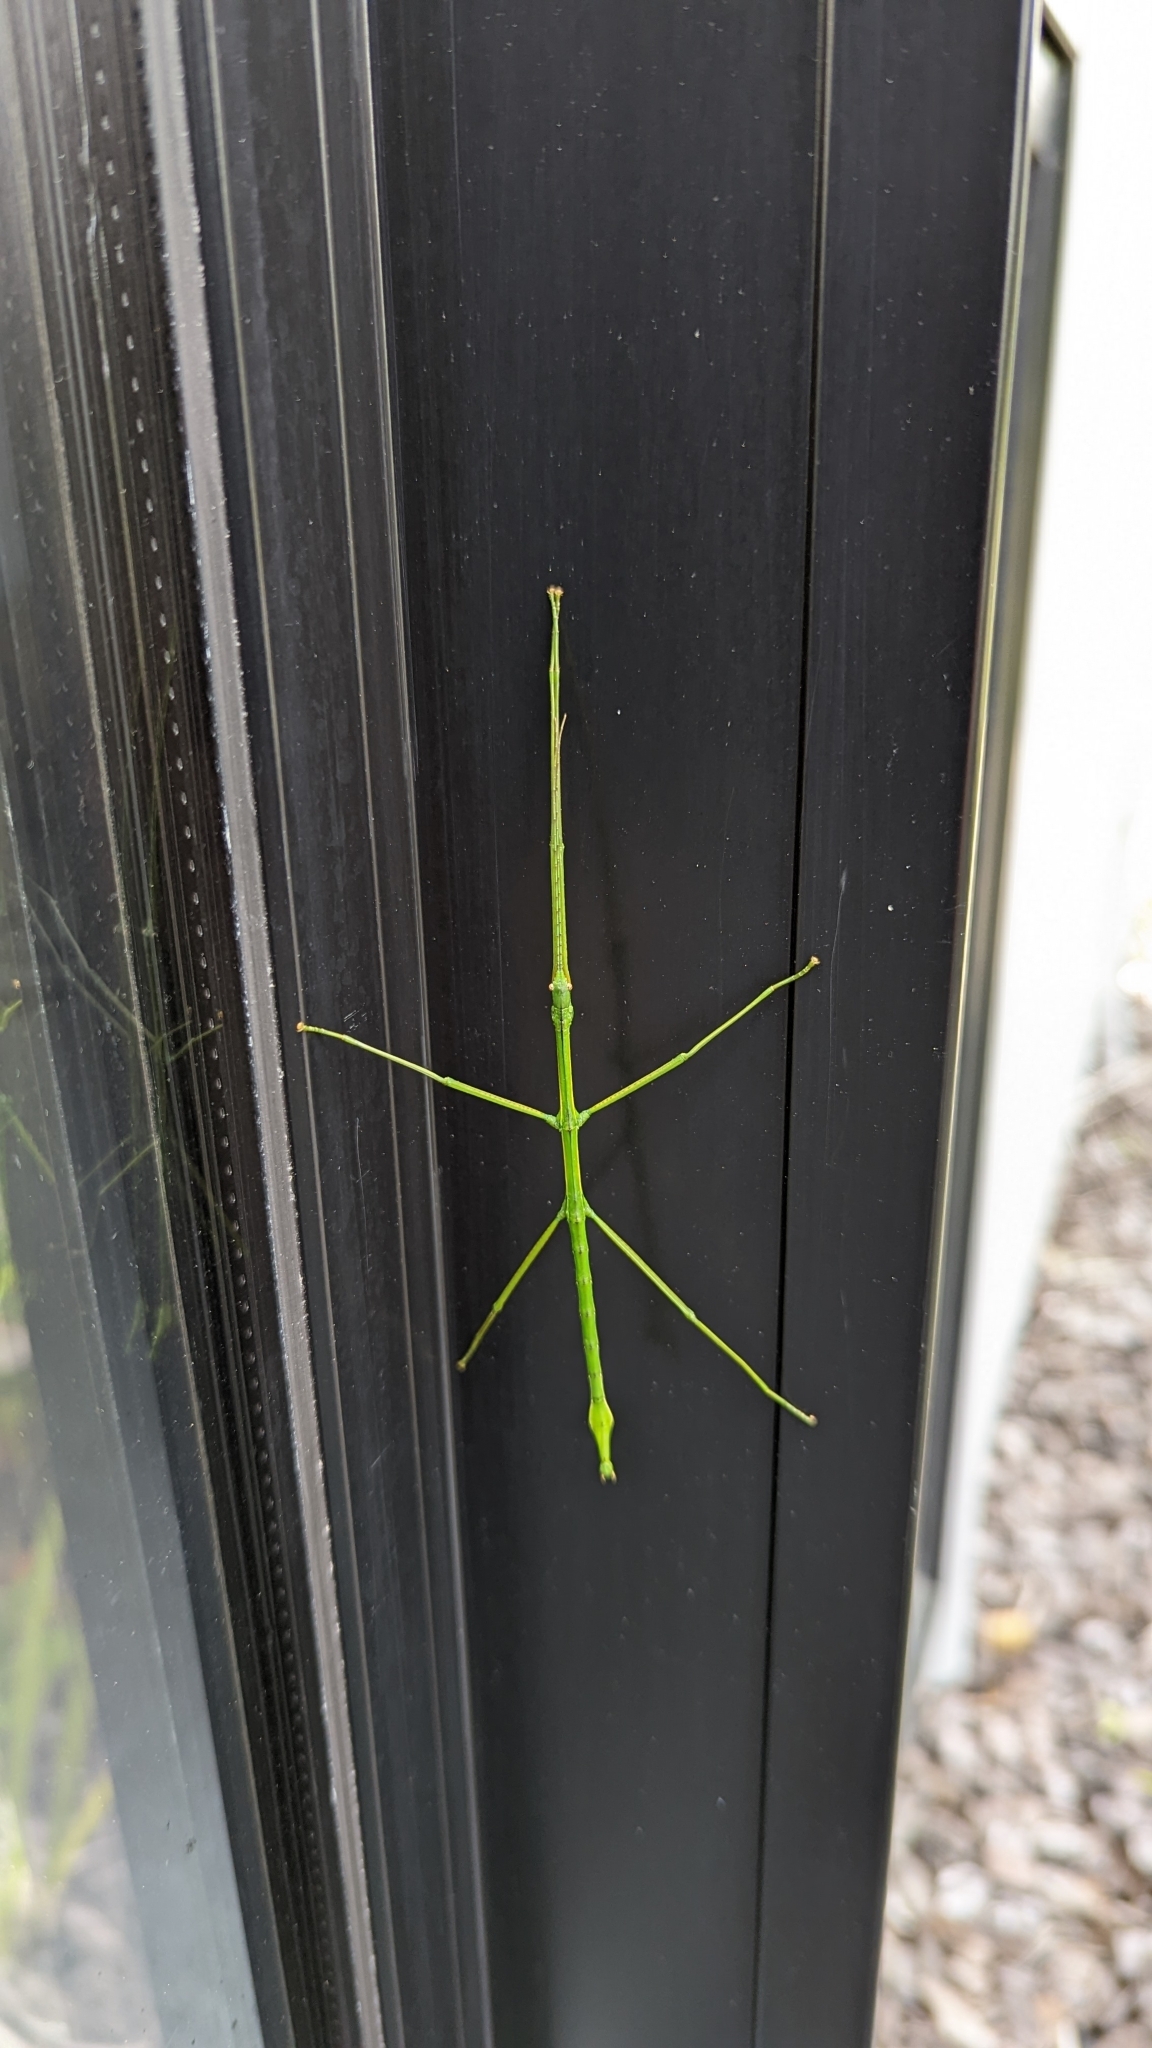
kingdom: Animalia
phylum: Arthropoda
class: Insecta
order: Phasmida
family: Phasmatidae
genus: Clitarchus
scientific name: Clitarchus hookeri
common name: Smooth stick insect
